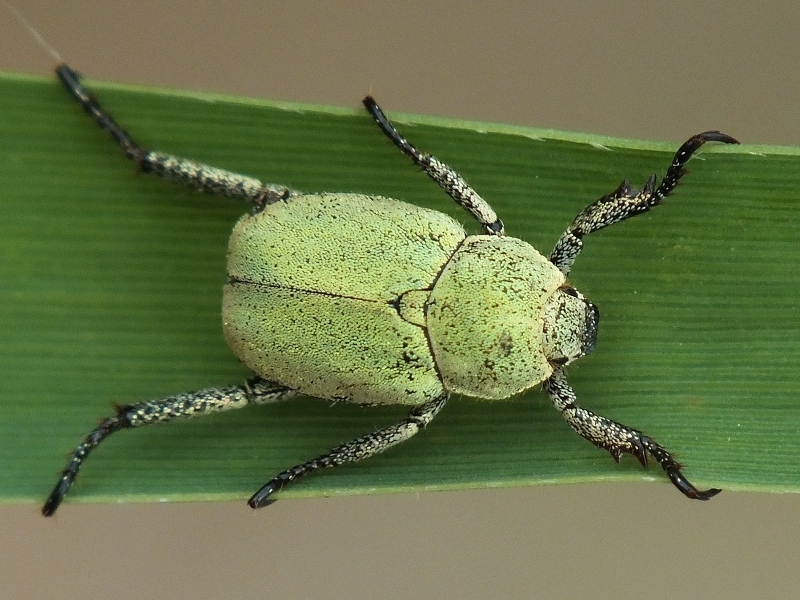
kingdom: Animalia
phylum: Arthropoda
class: Insecta
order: Coleoptera
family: Scarabaeidae
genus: Hoplia
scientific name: Hoplia parvula
